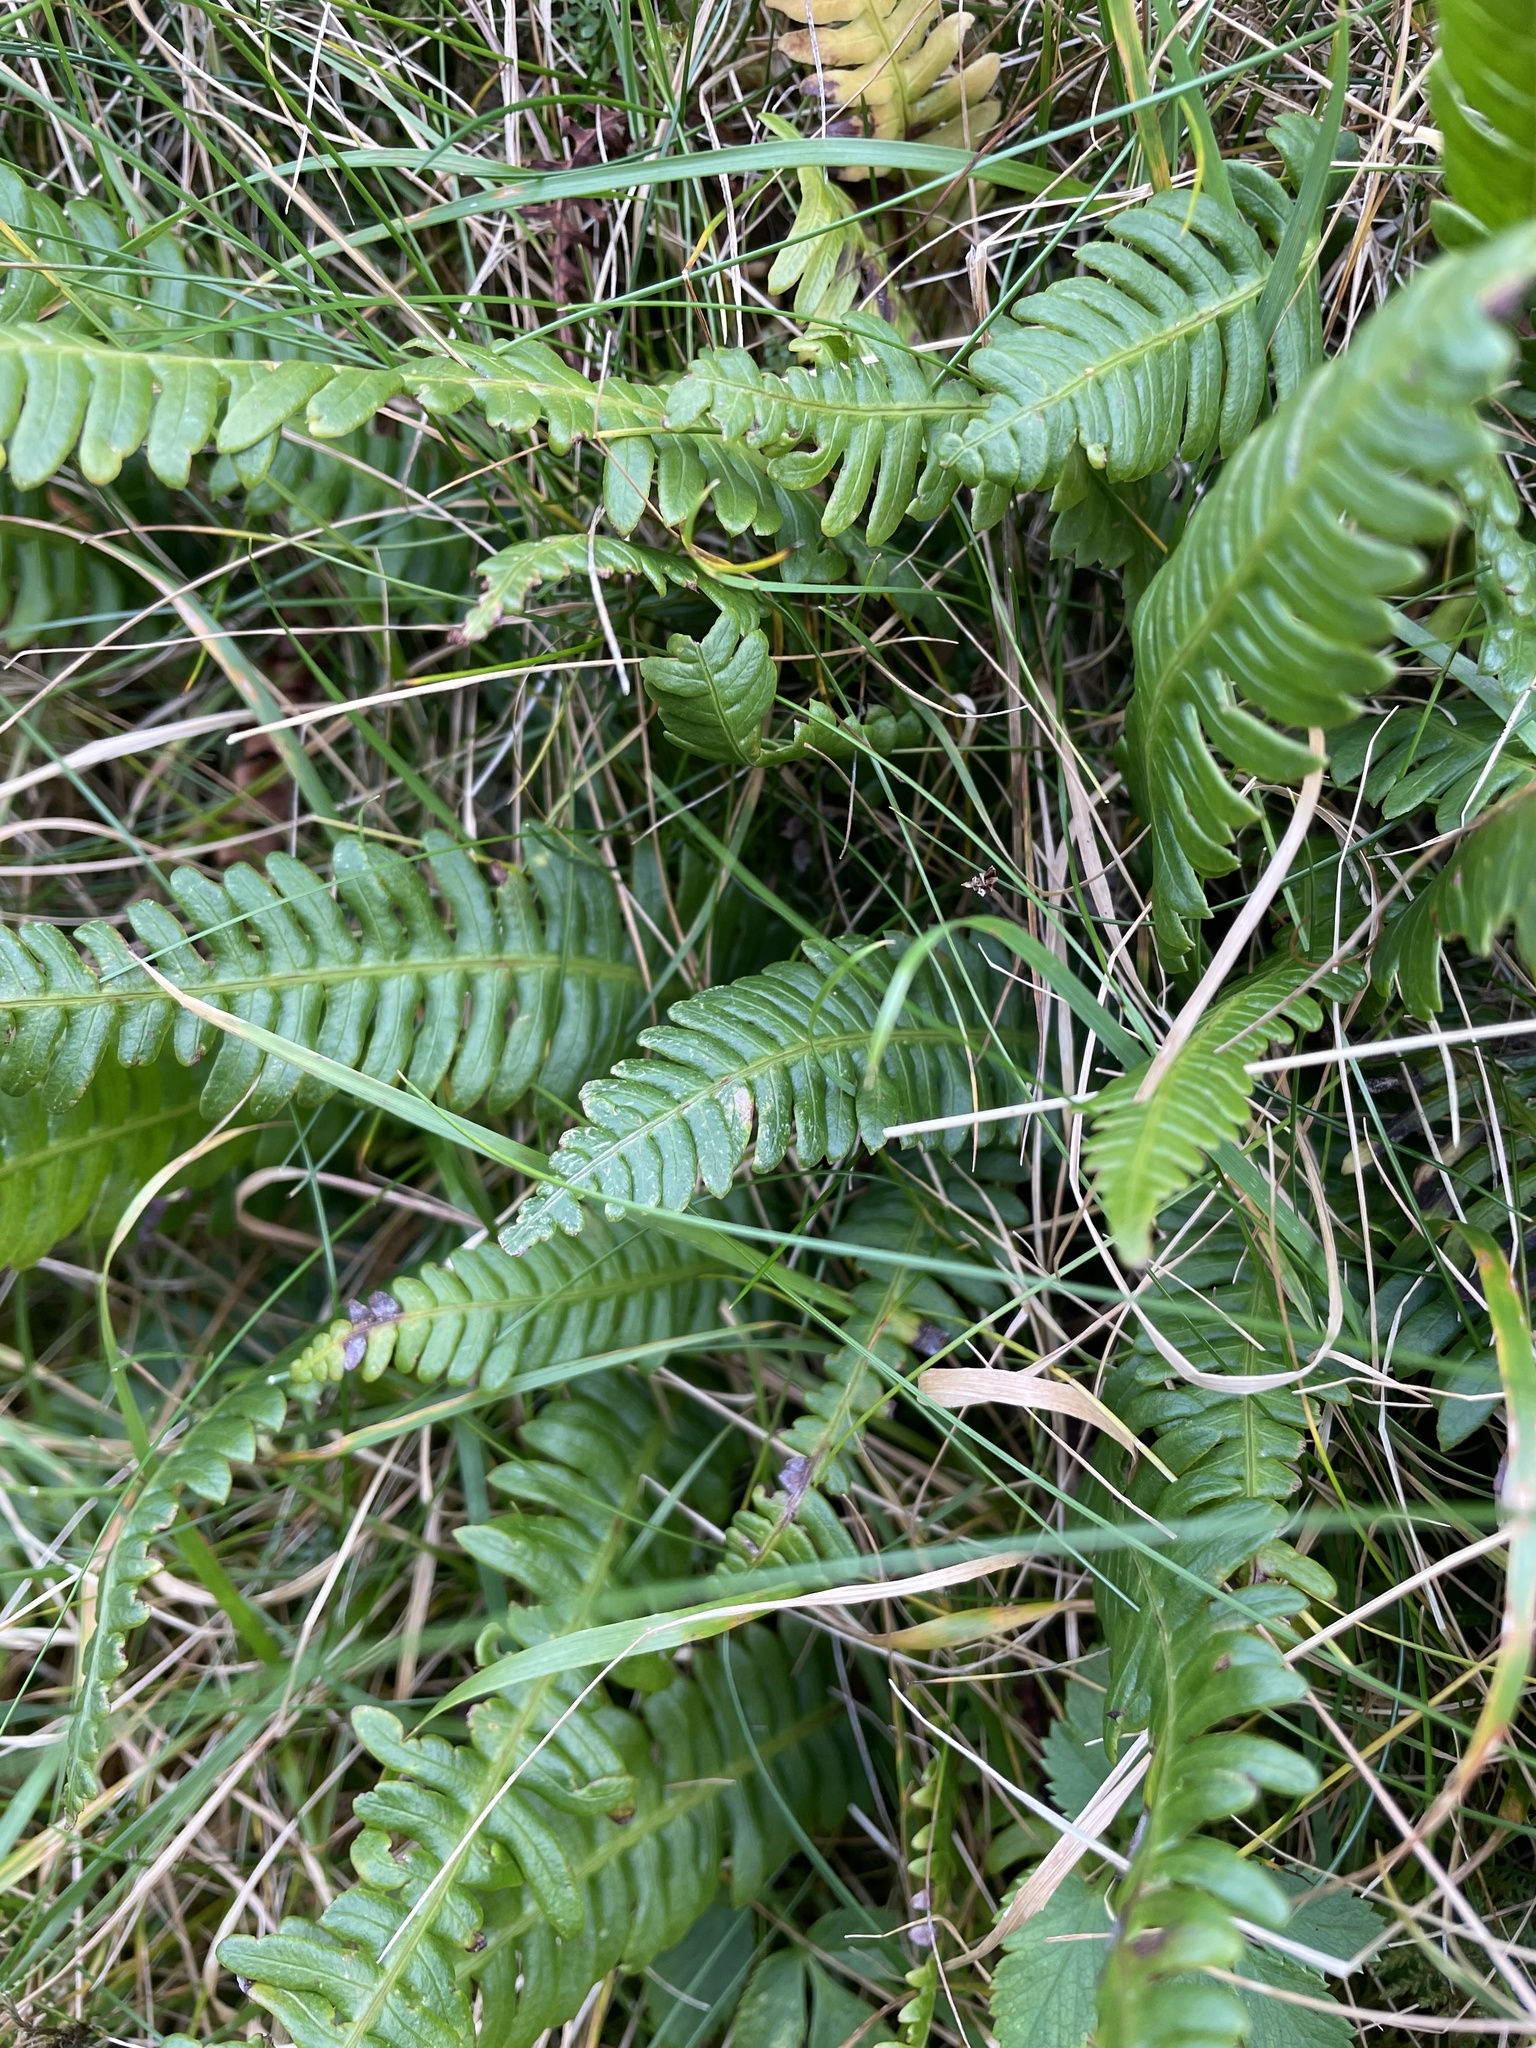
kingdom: Plantae
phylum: Tracheophyta
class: Polypodiopsida
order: Polypodiales
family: Blechnaceae
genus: Struthiopteris
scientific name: Struthiopteris spicant
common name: Deer fern
